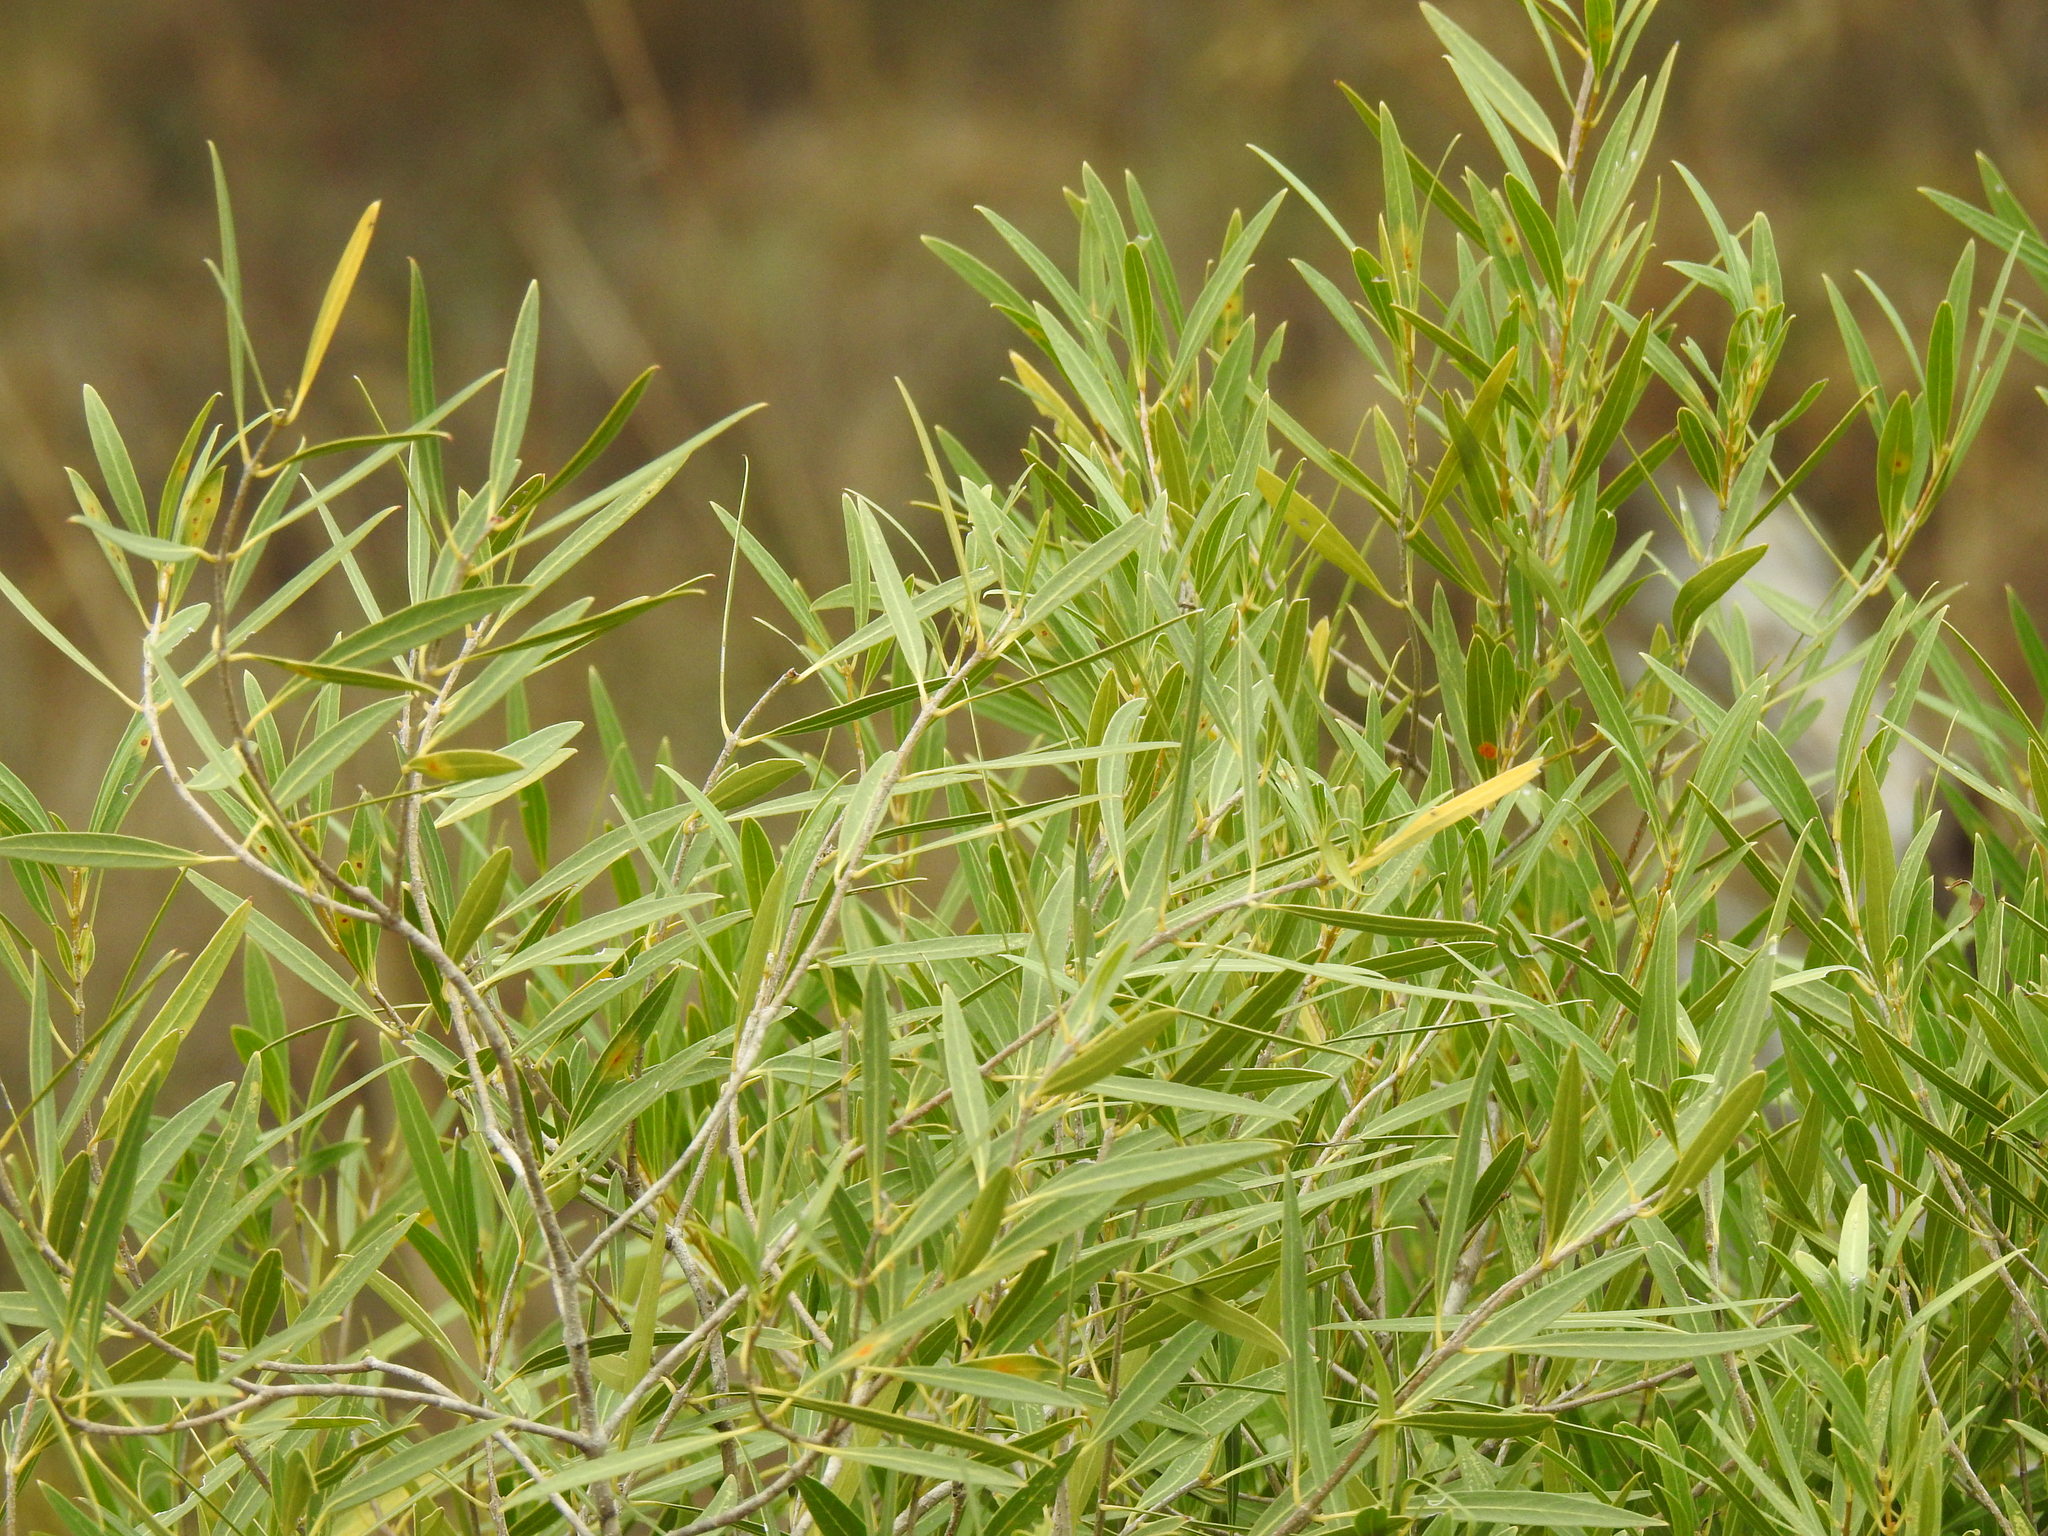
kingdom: Plantae
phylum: Tracheophyta
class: Magnoliopsida
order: Lamiales
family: Oleaceae
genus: Phillyrea
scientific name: Phillyrea angustifolia
